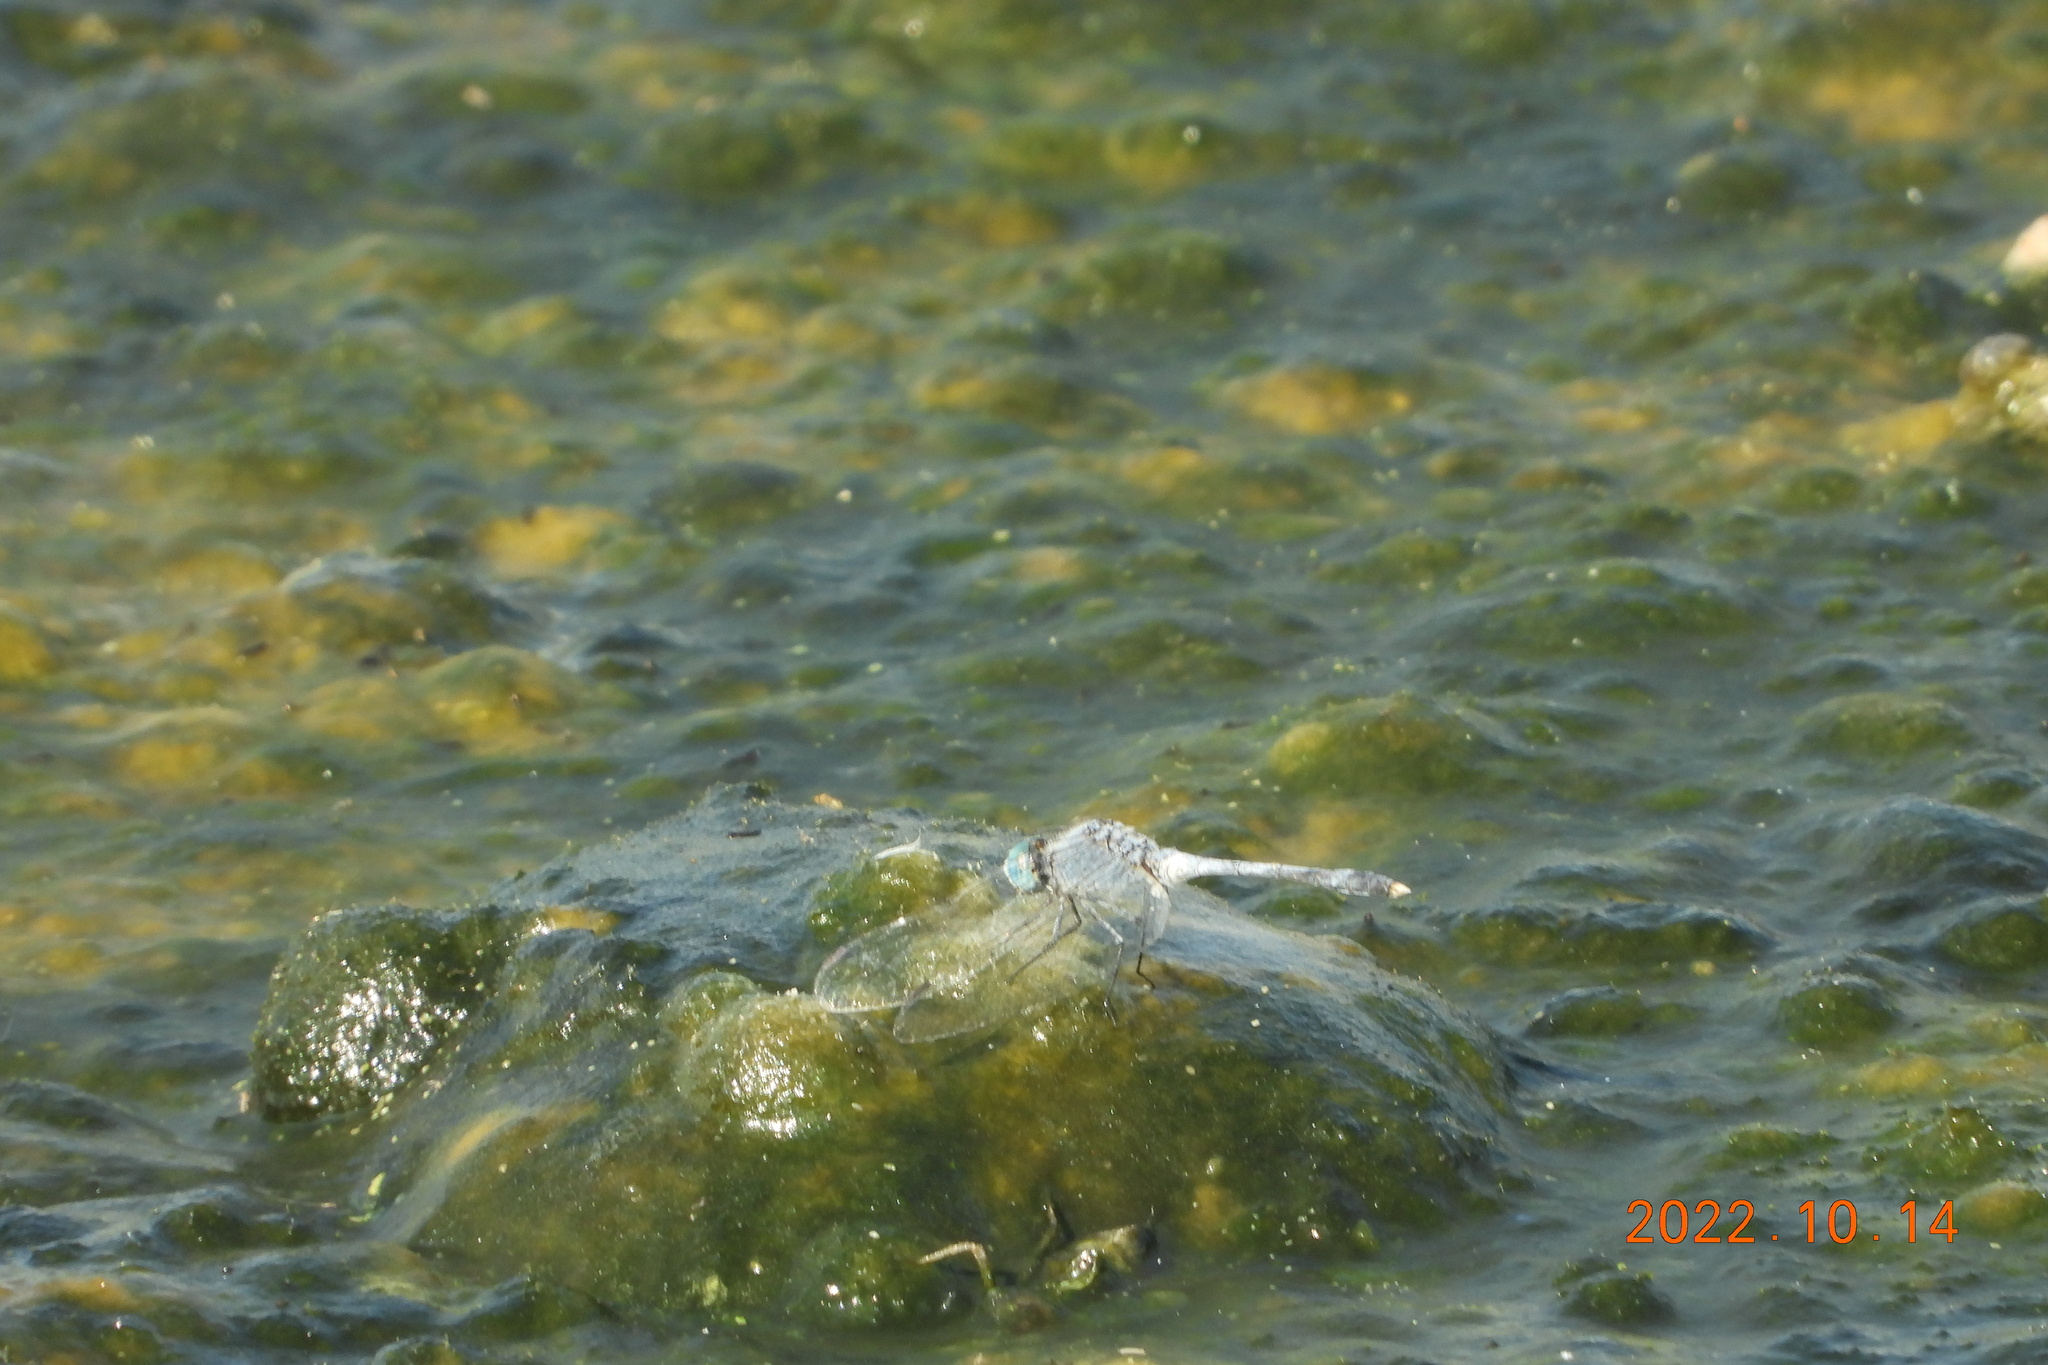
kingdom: Animalia
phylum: Arthropoda
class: Insecta
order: Odonata
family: Libellulidae
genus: Diplacodes
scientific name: Diplacodes trivialis
